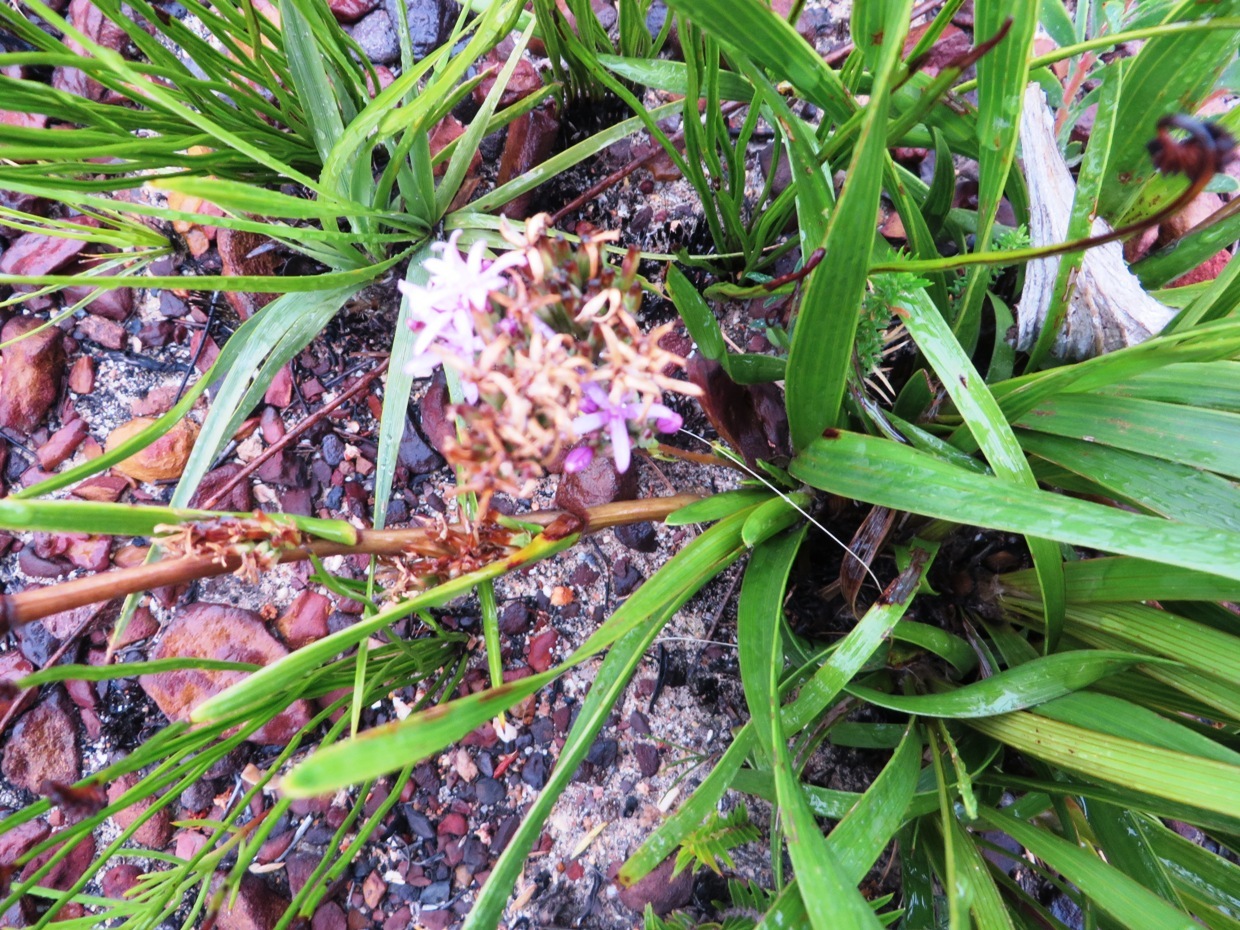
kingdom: Plantae
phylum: Tracheophyta
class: Magnoliopsida
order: Asterales
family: Asteraceae
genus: Corymbium
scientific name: Corymbium glabrum
